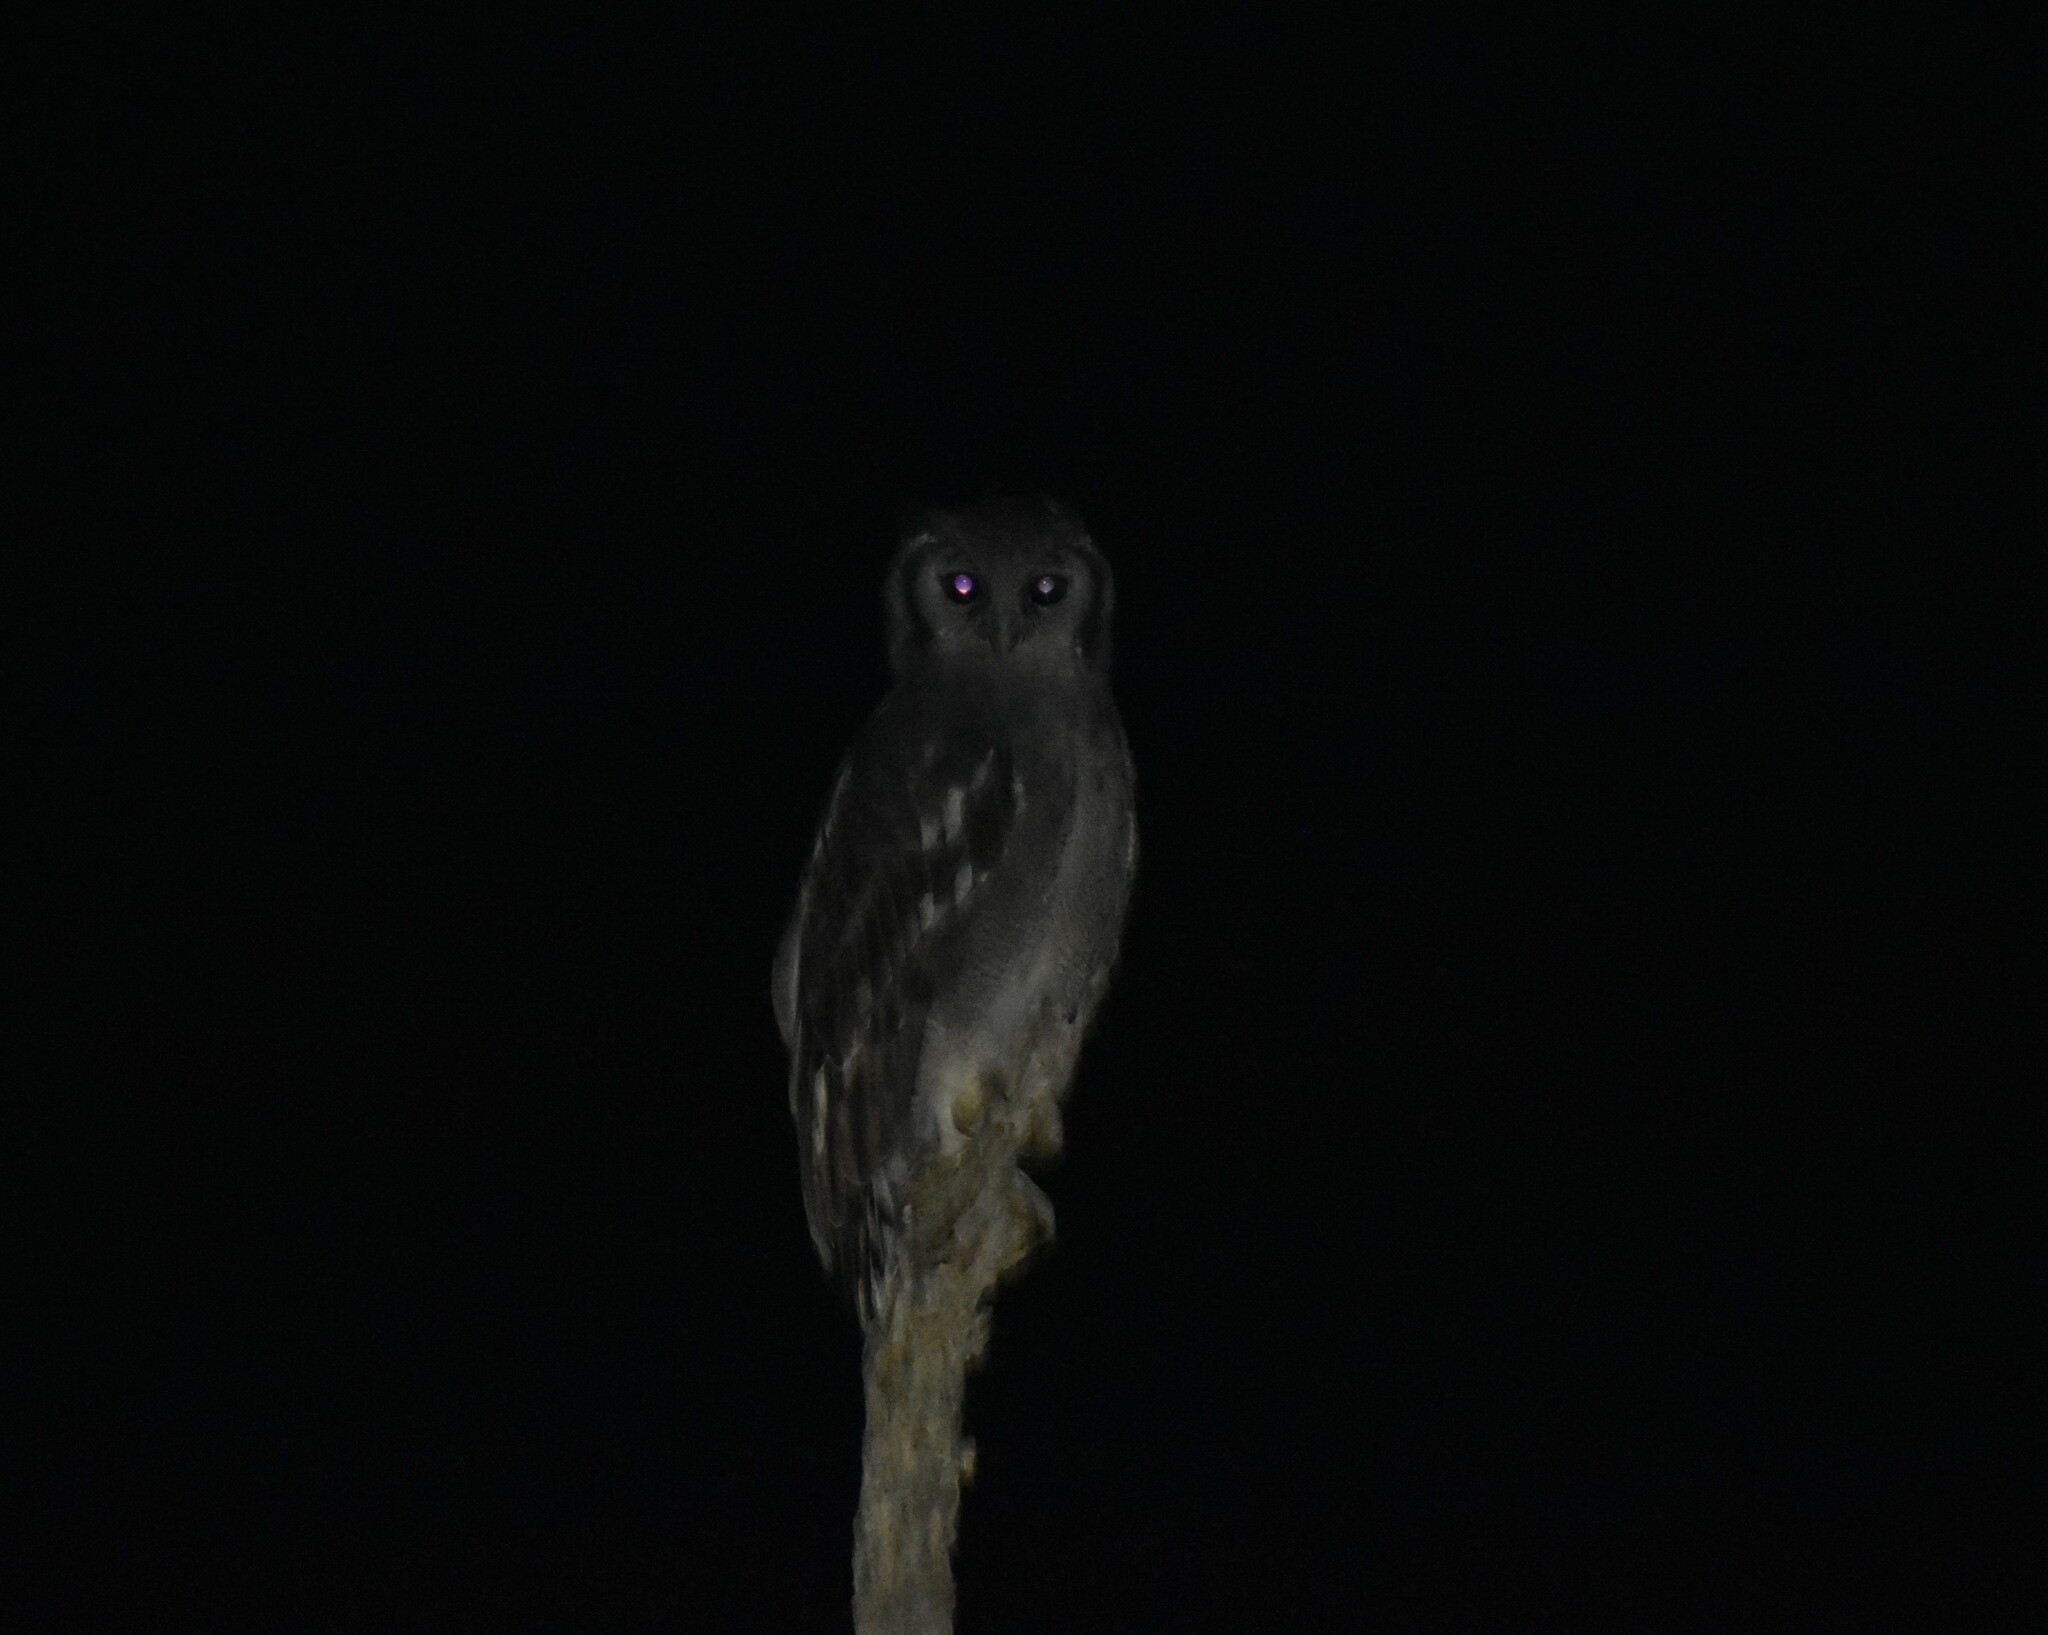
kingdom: Animalia
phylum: Chordata
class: Aves
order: Strigiformes
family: Strigidae
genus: Bubo
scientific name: Bubo lacteus
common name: Verreaux's eagle-owl
